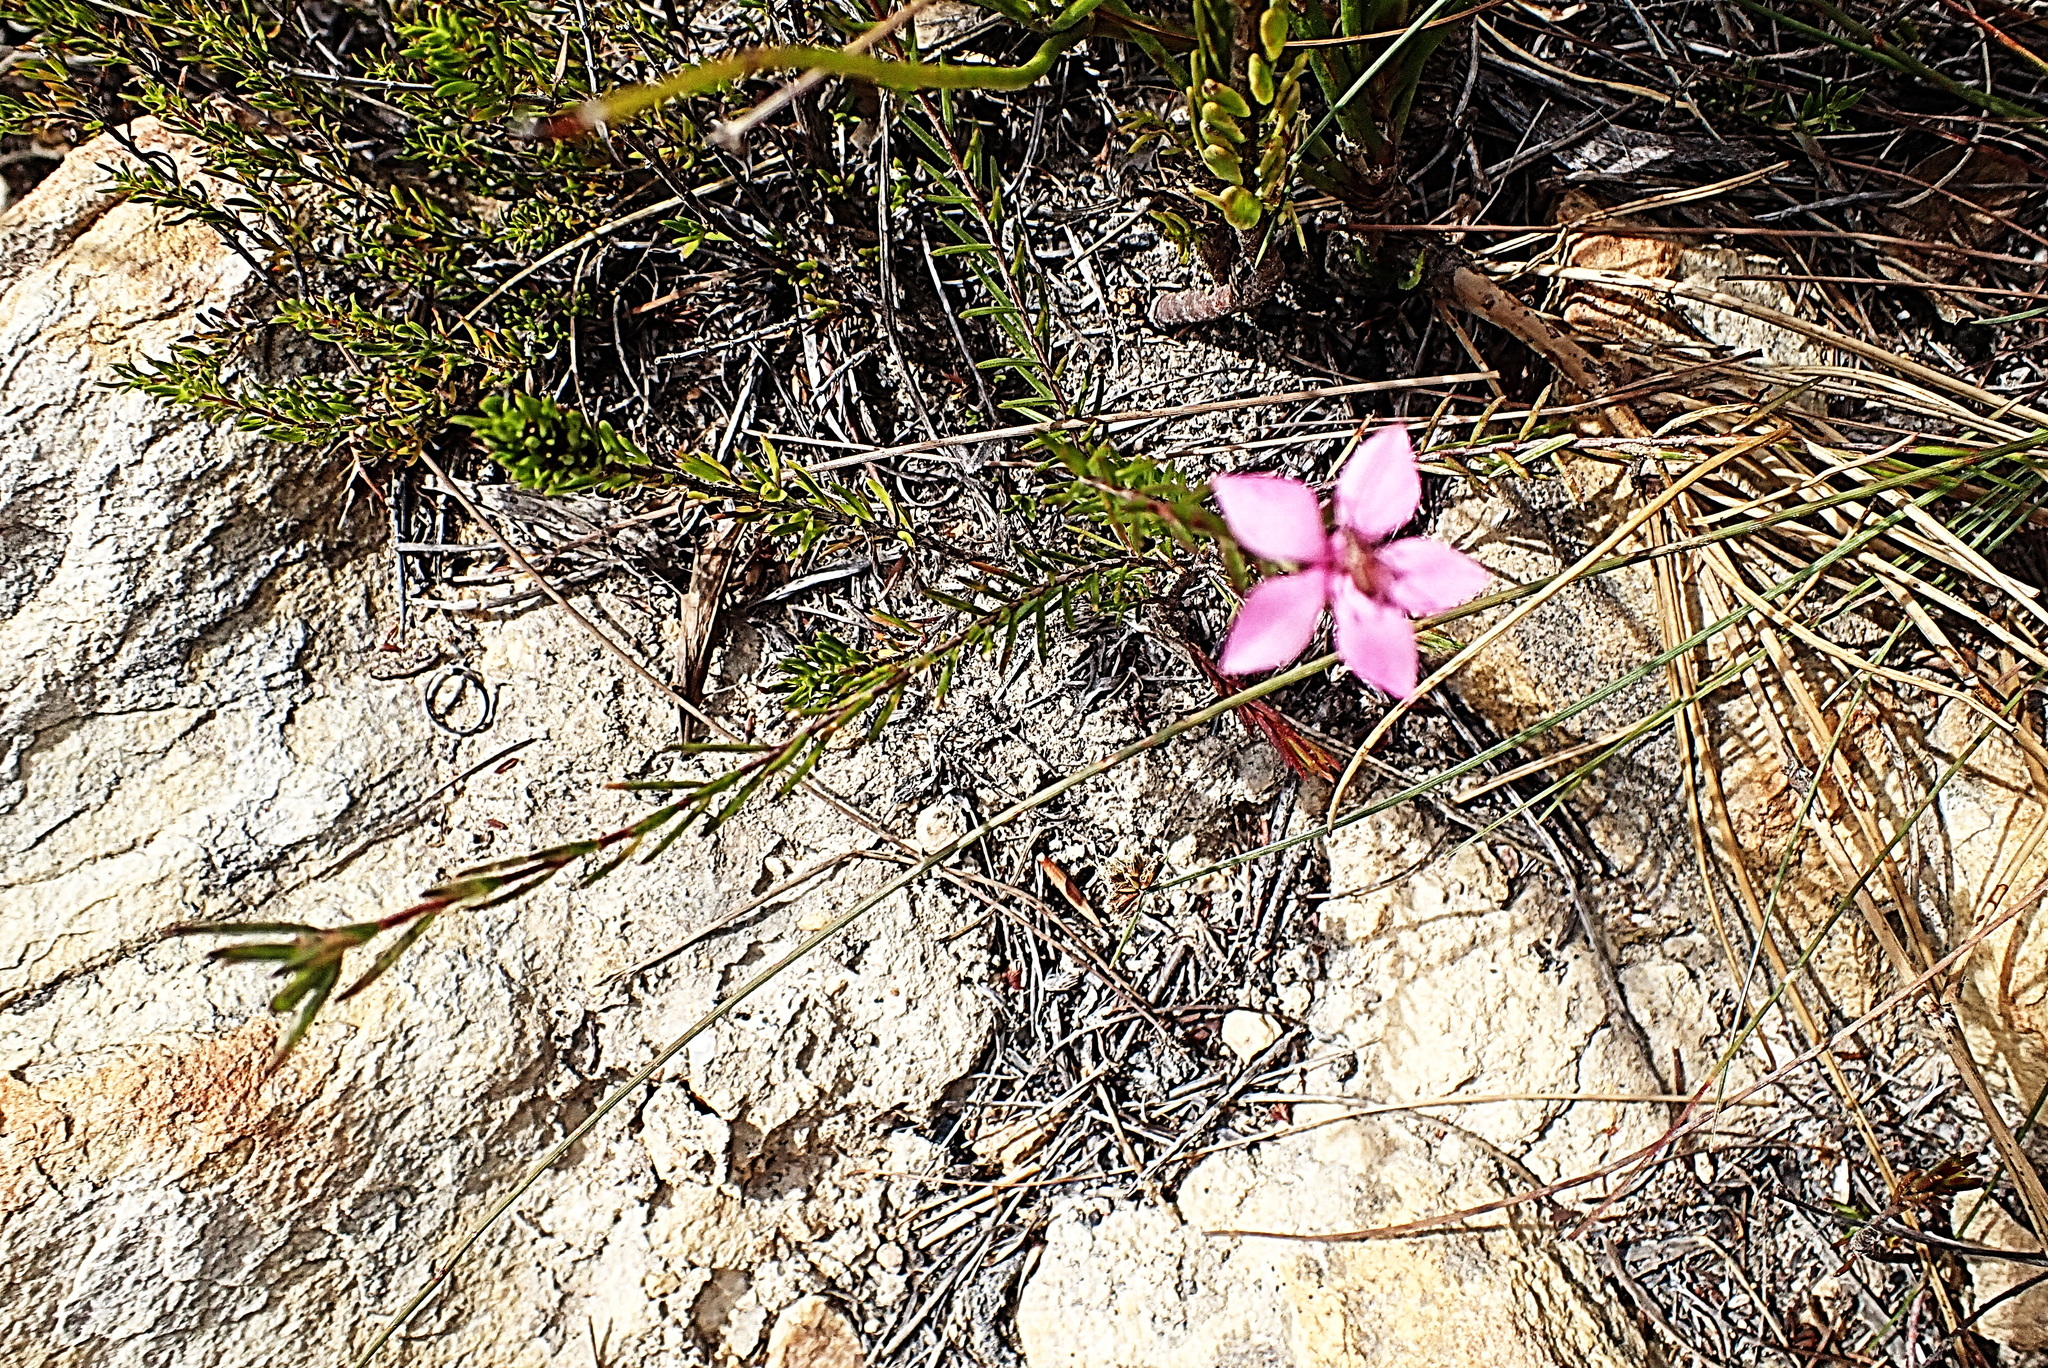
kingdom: Plantae
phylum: Tracheophyta
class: Magnoliopsida
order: Sapindales
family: Rutaceae
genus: Acmadenia
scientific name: Acmadenia trigona
